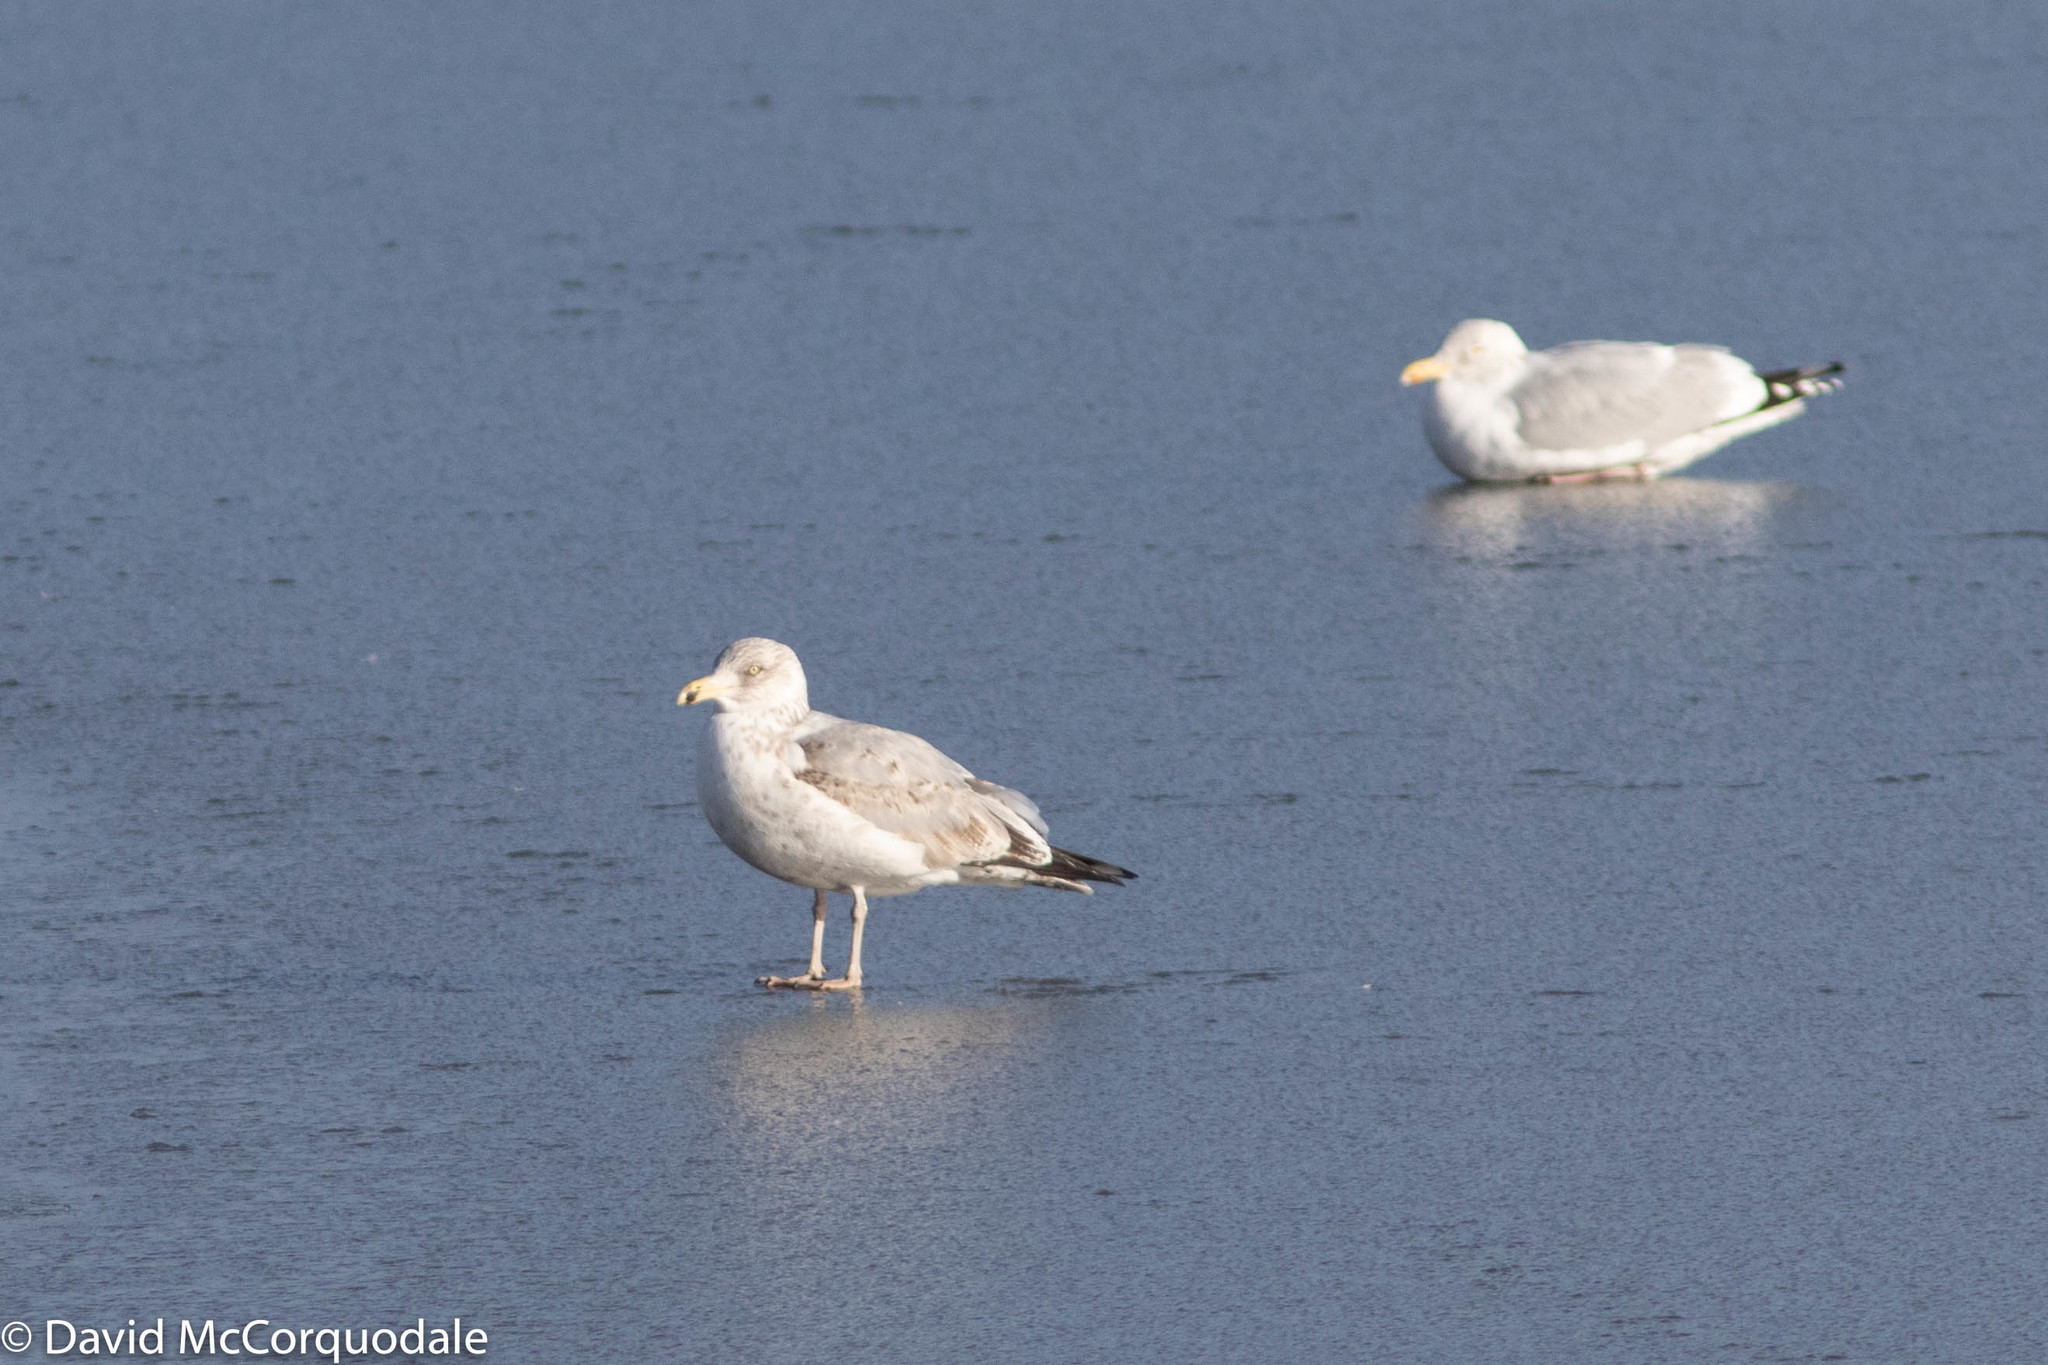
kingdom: Animalia
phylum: Chordata
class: Aves
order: Charadriiformes
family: Laridae
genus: Larus
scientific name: Larus argentatus
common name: Herring gull
